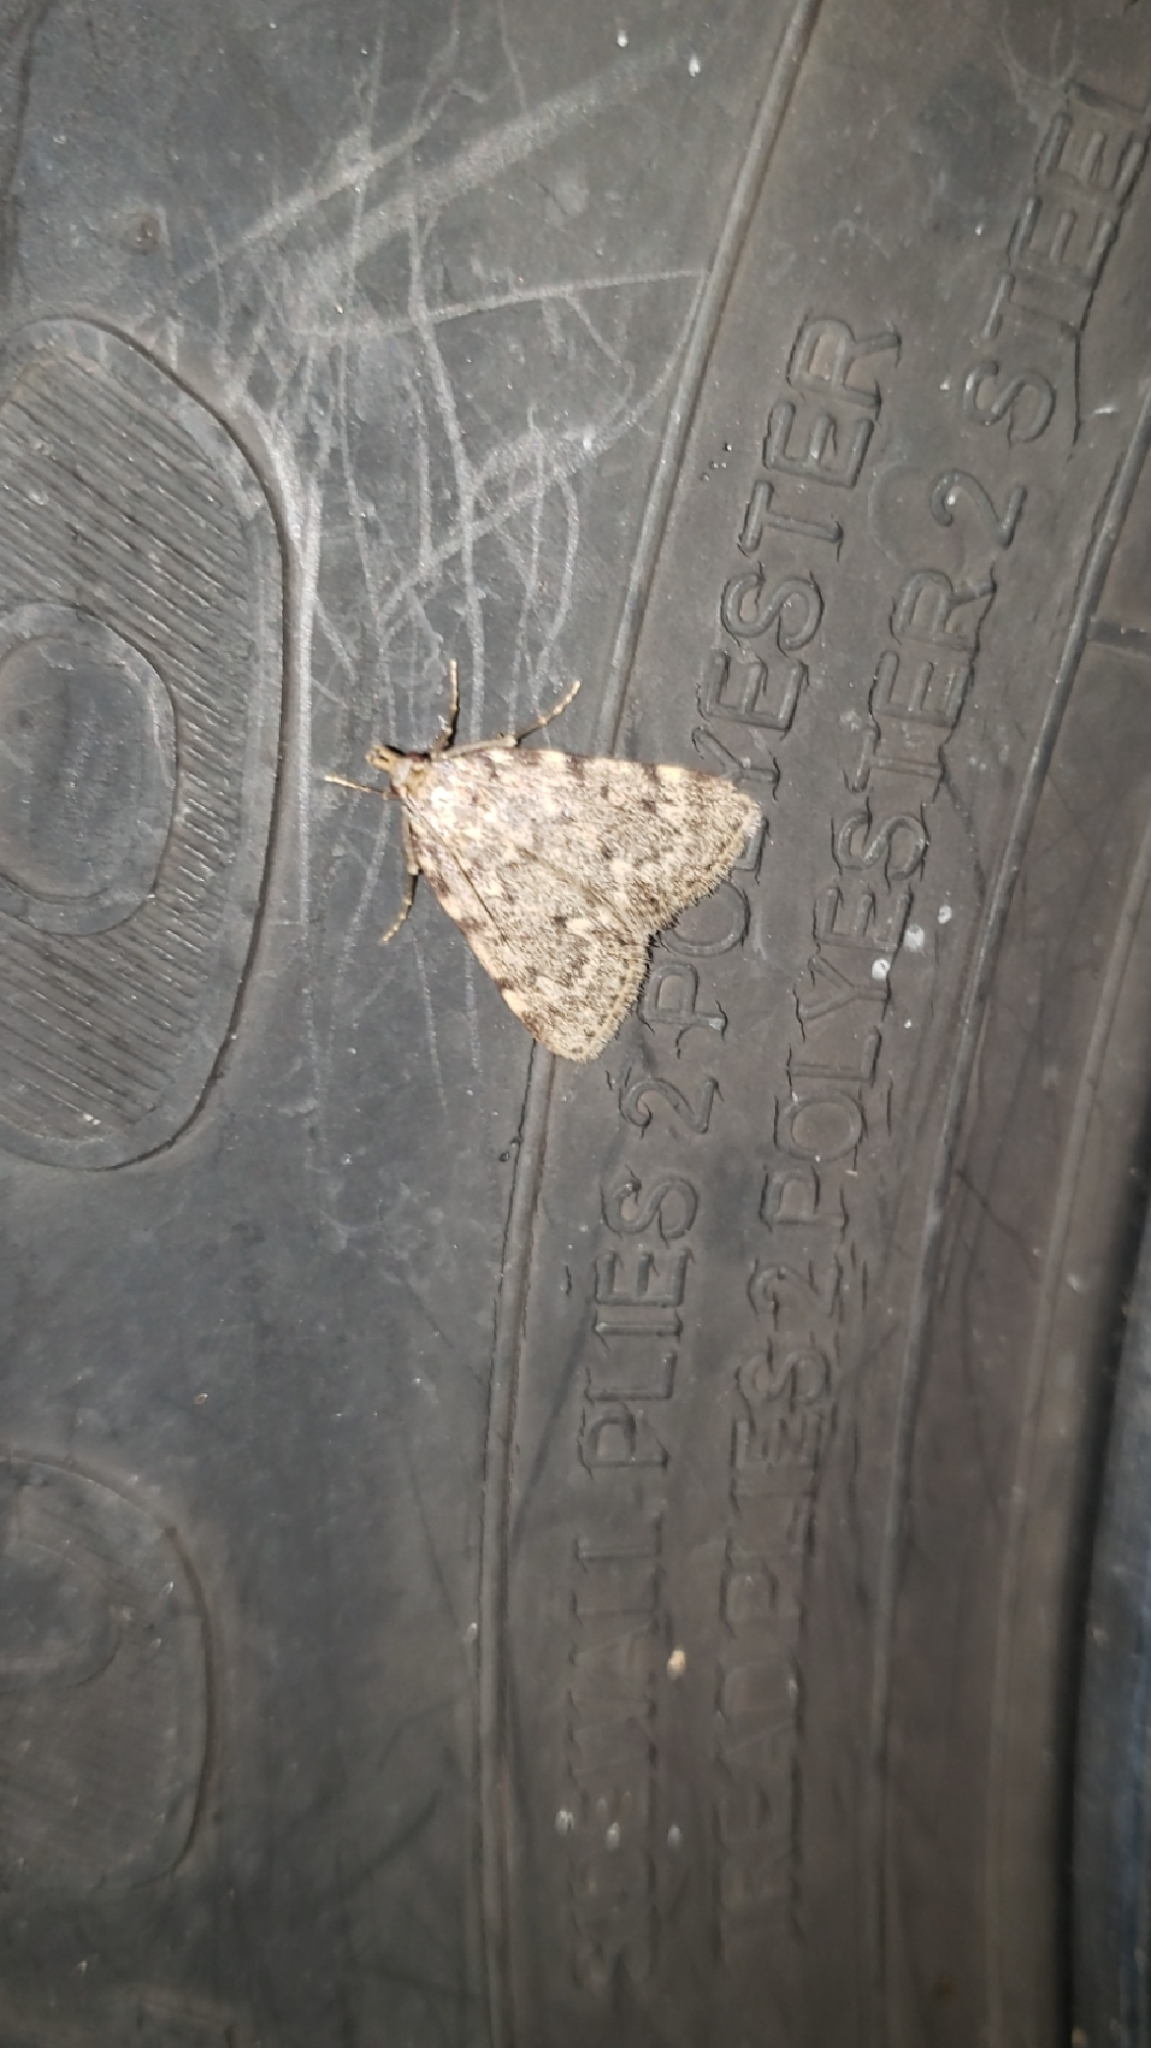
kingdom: Animalia
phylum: Arthropoda
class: Insecta
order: Lepidoptera
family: Pyralidae
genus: Aglossa
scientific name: Aglossa pinguinalis
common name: Large tabby
